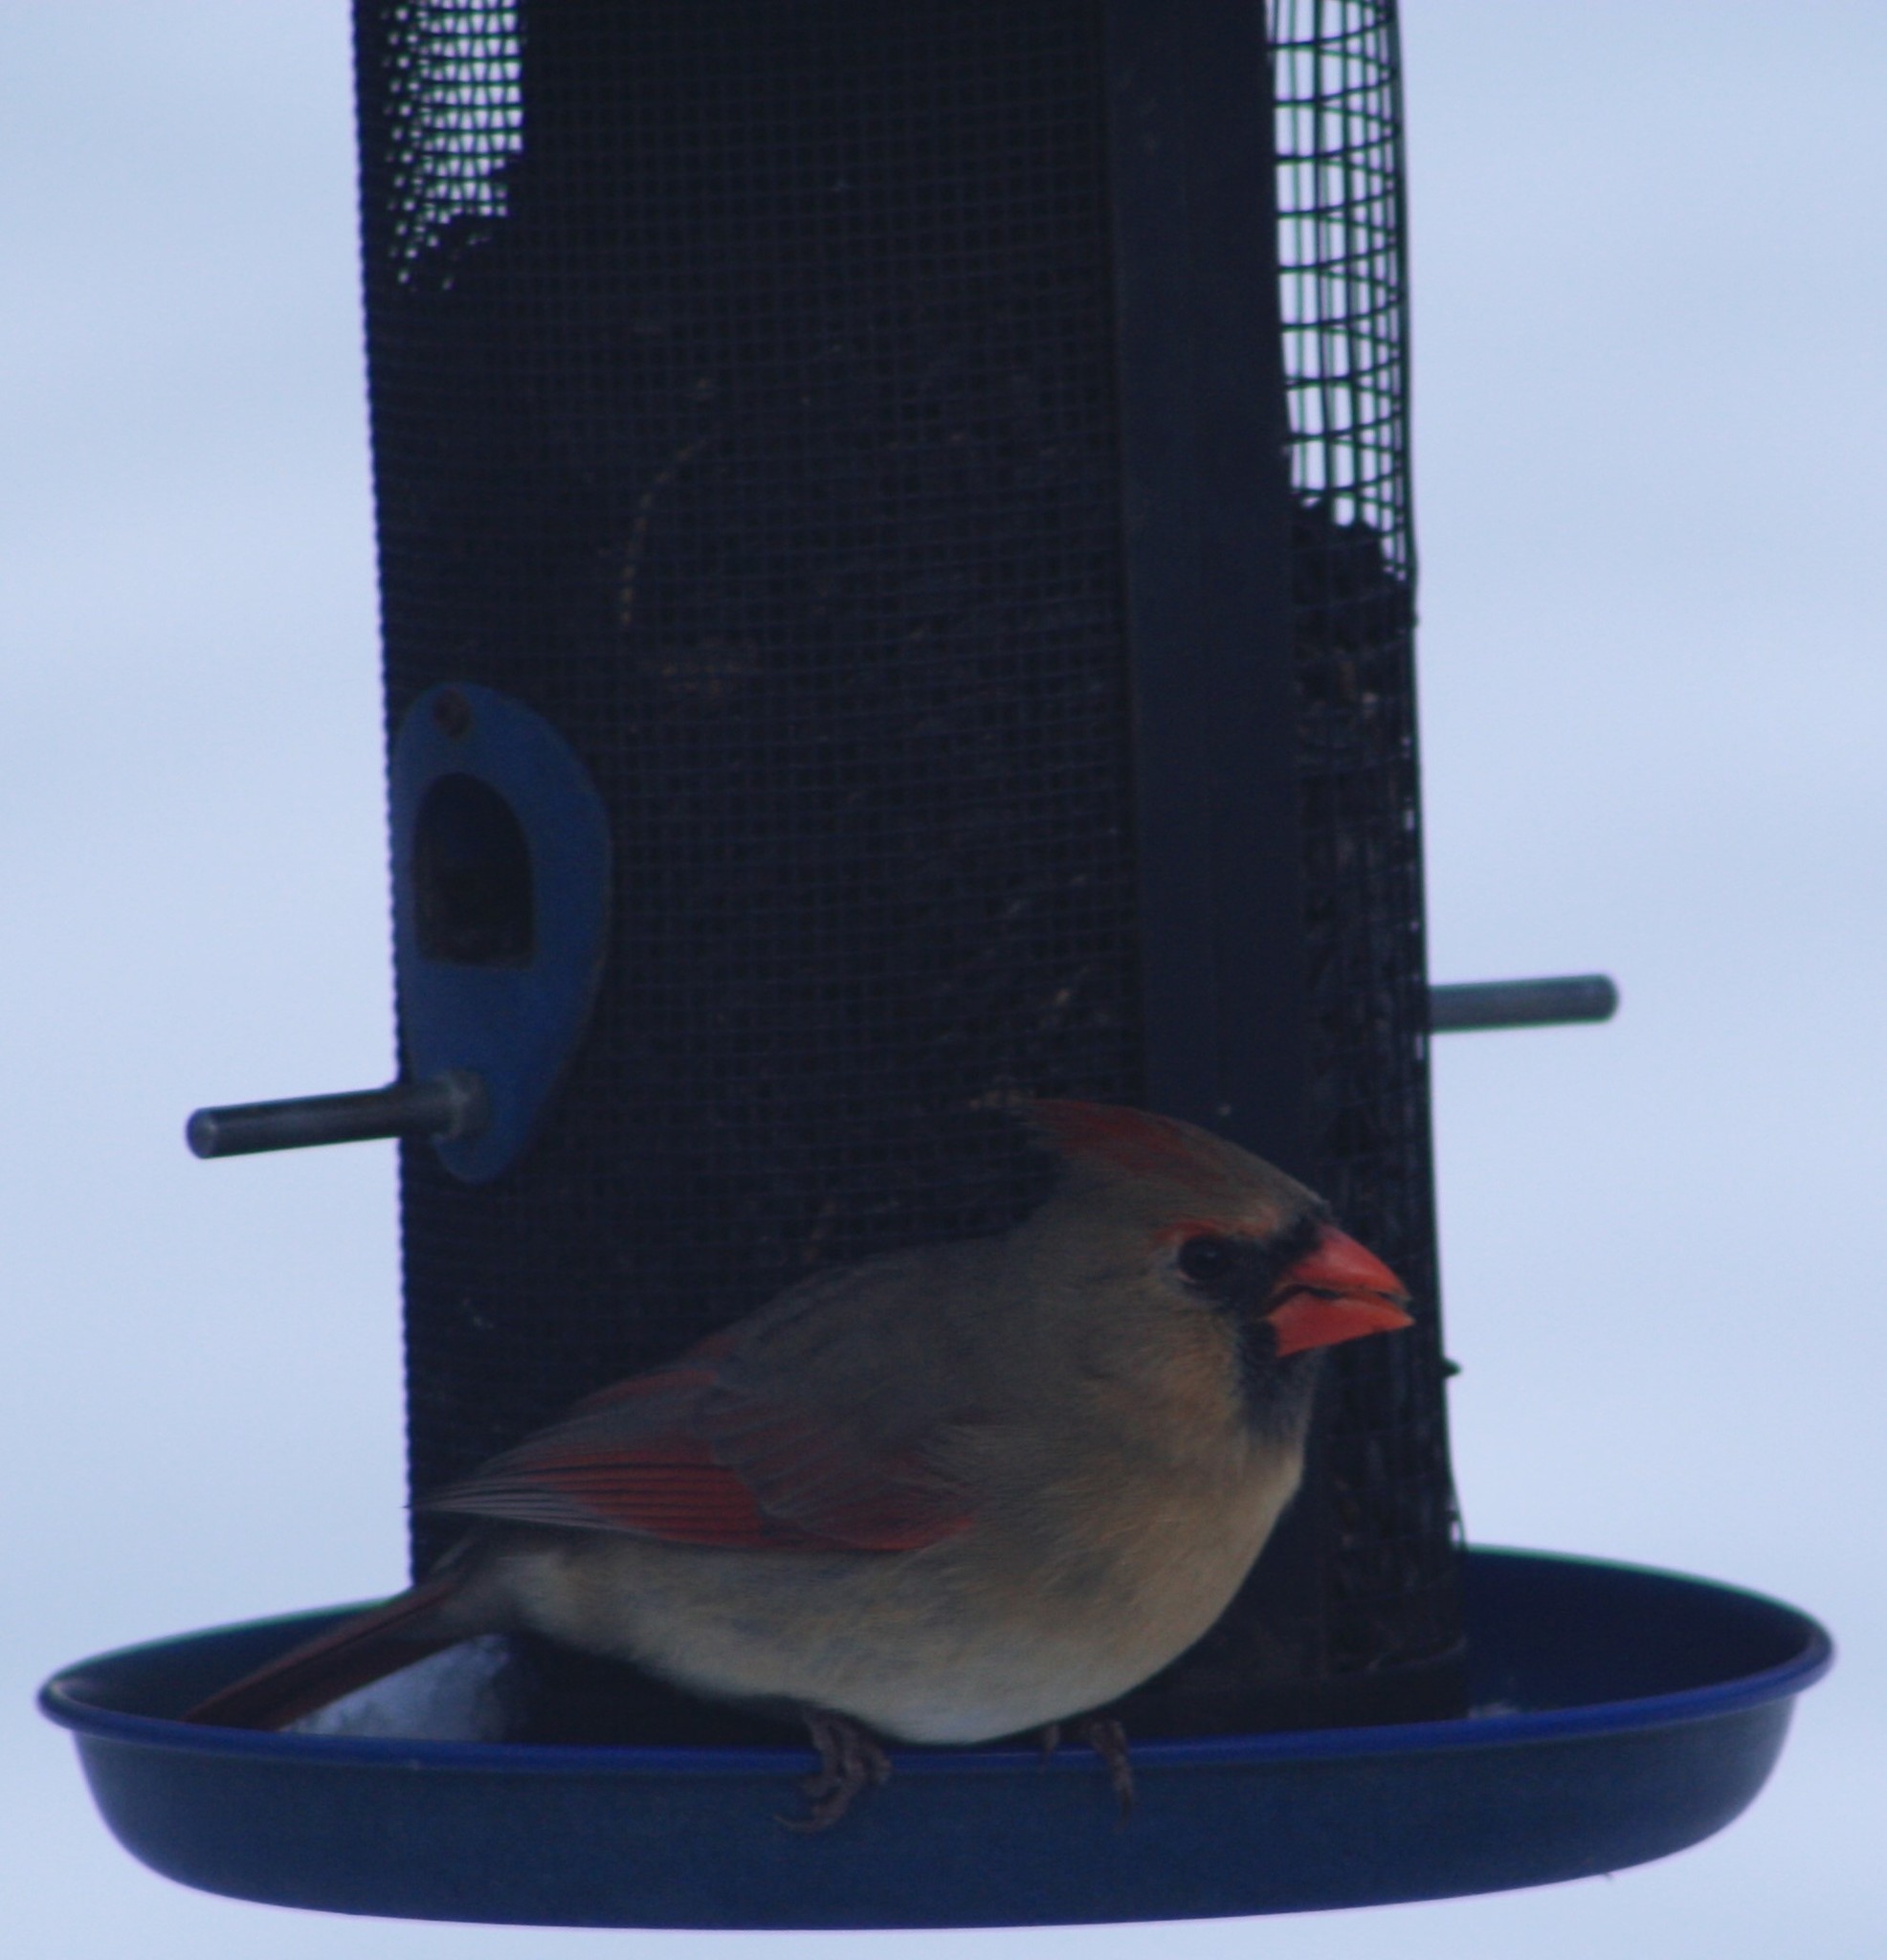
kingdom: Animalia
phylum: Chordata
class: Aves
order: Passeriformes
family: Cardinalidae
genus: Cardinalis
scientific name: Cardinalis cardinalis
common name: Northern cardinal
